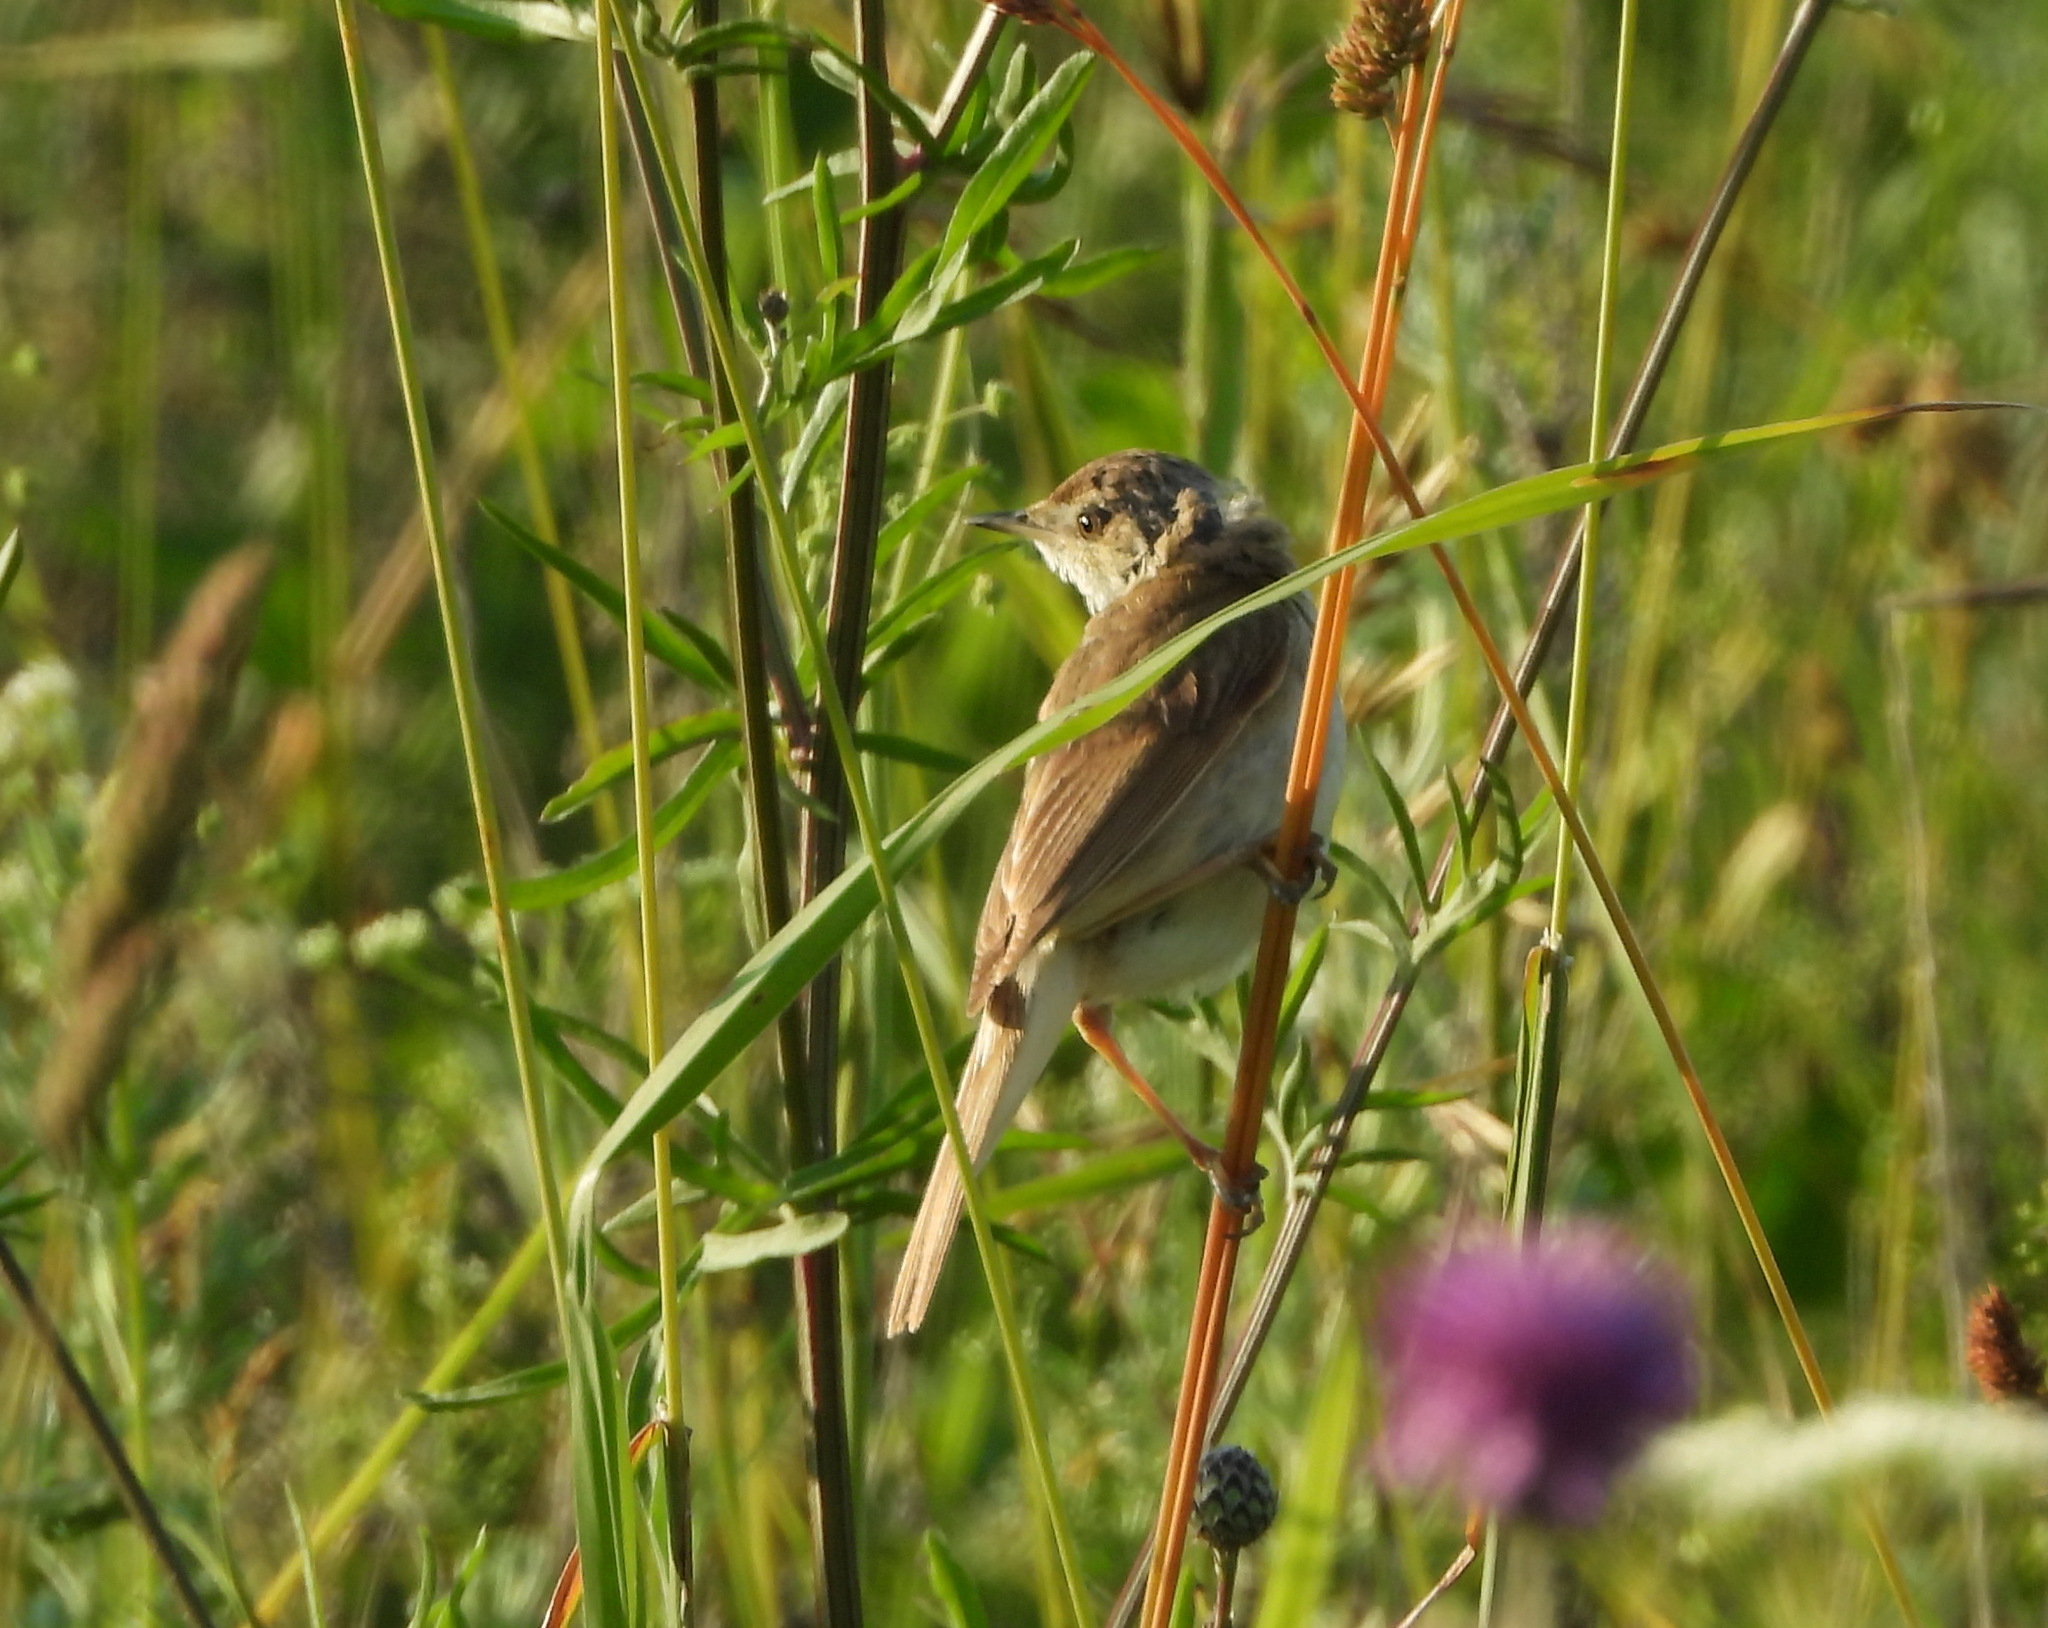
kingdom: Animalia
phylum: Chordata
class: Aves
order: Passeriformes
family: Acrocephalidae
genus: Acrocephalus
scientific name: Acrocephalus agricola
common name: Paddyfield warbler
